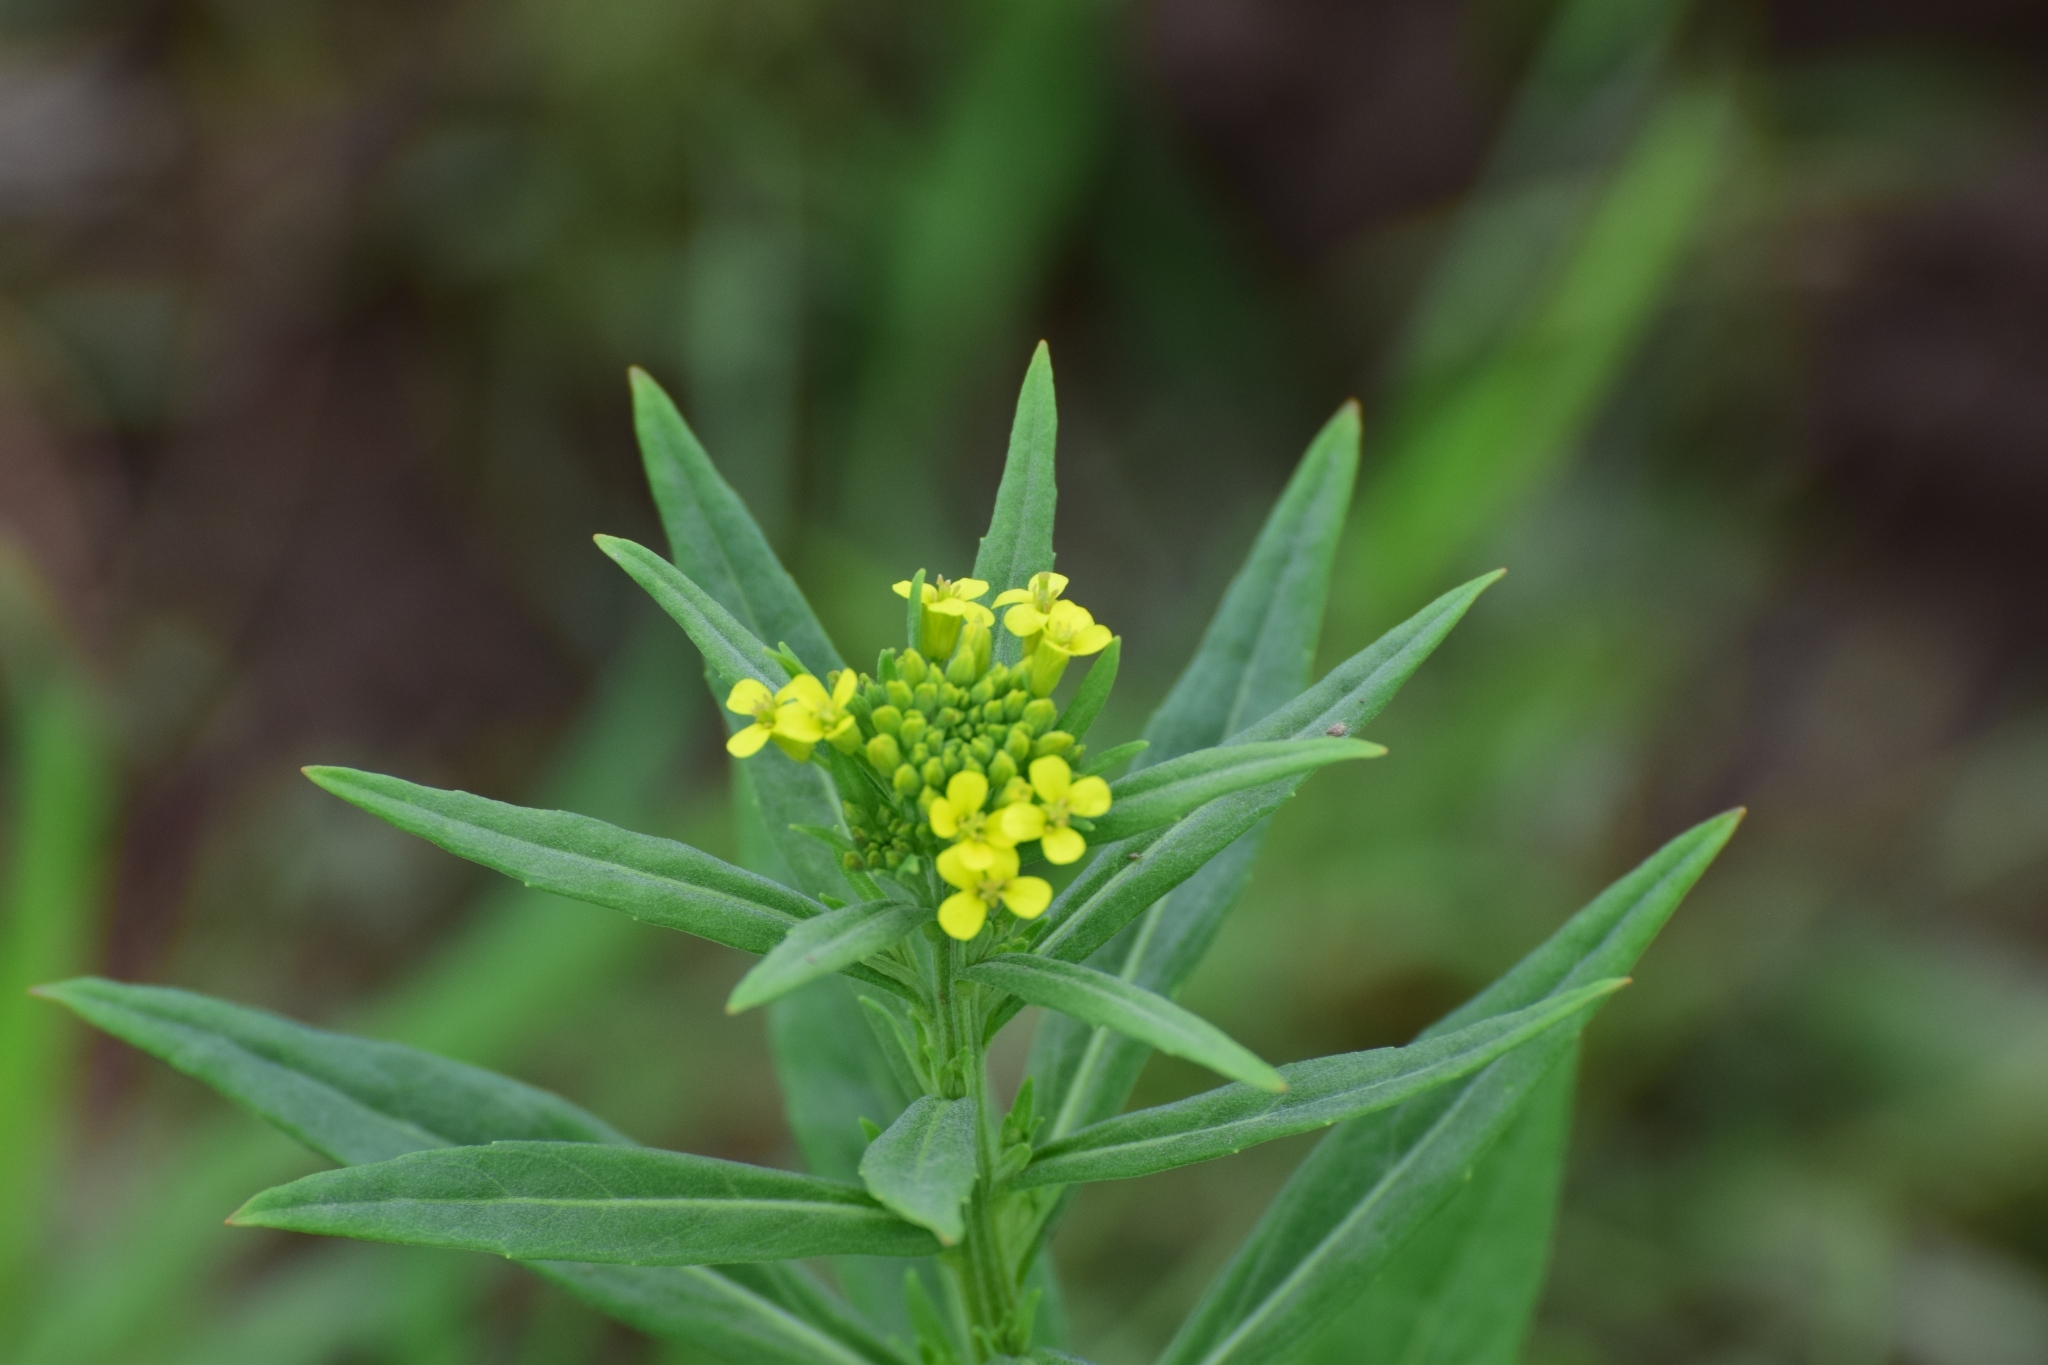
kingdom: Plantae
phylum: Tracheophyta
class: Magnoliopsida
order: Brassicales
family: Brassicaceae
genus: Erysimum
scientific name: Erysimum cheiranthoides
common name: Treacle mustard
